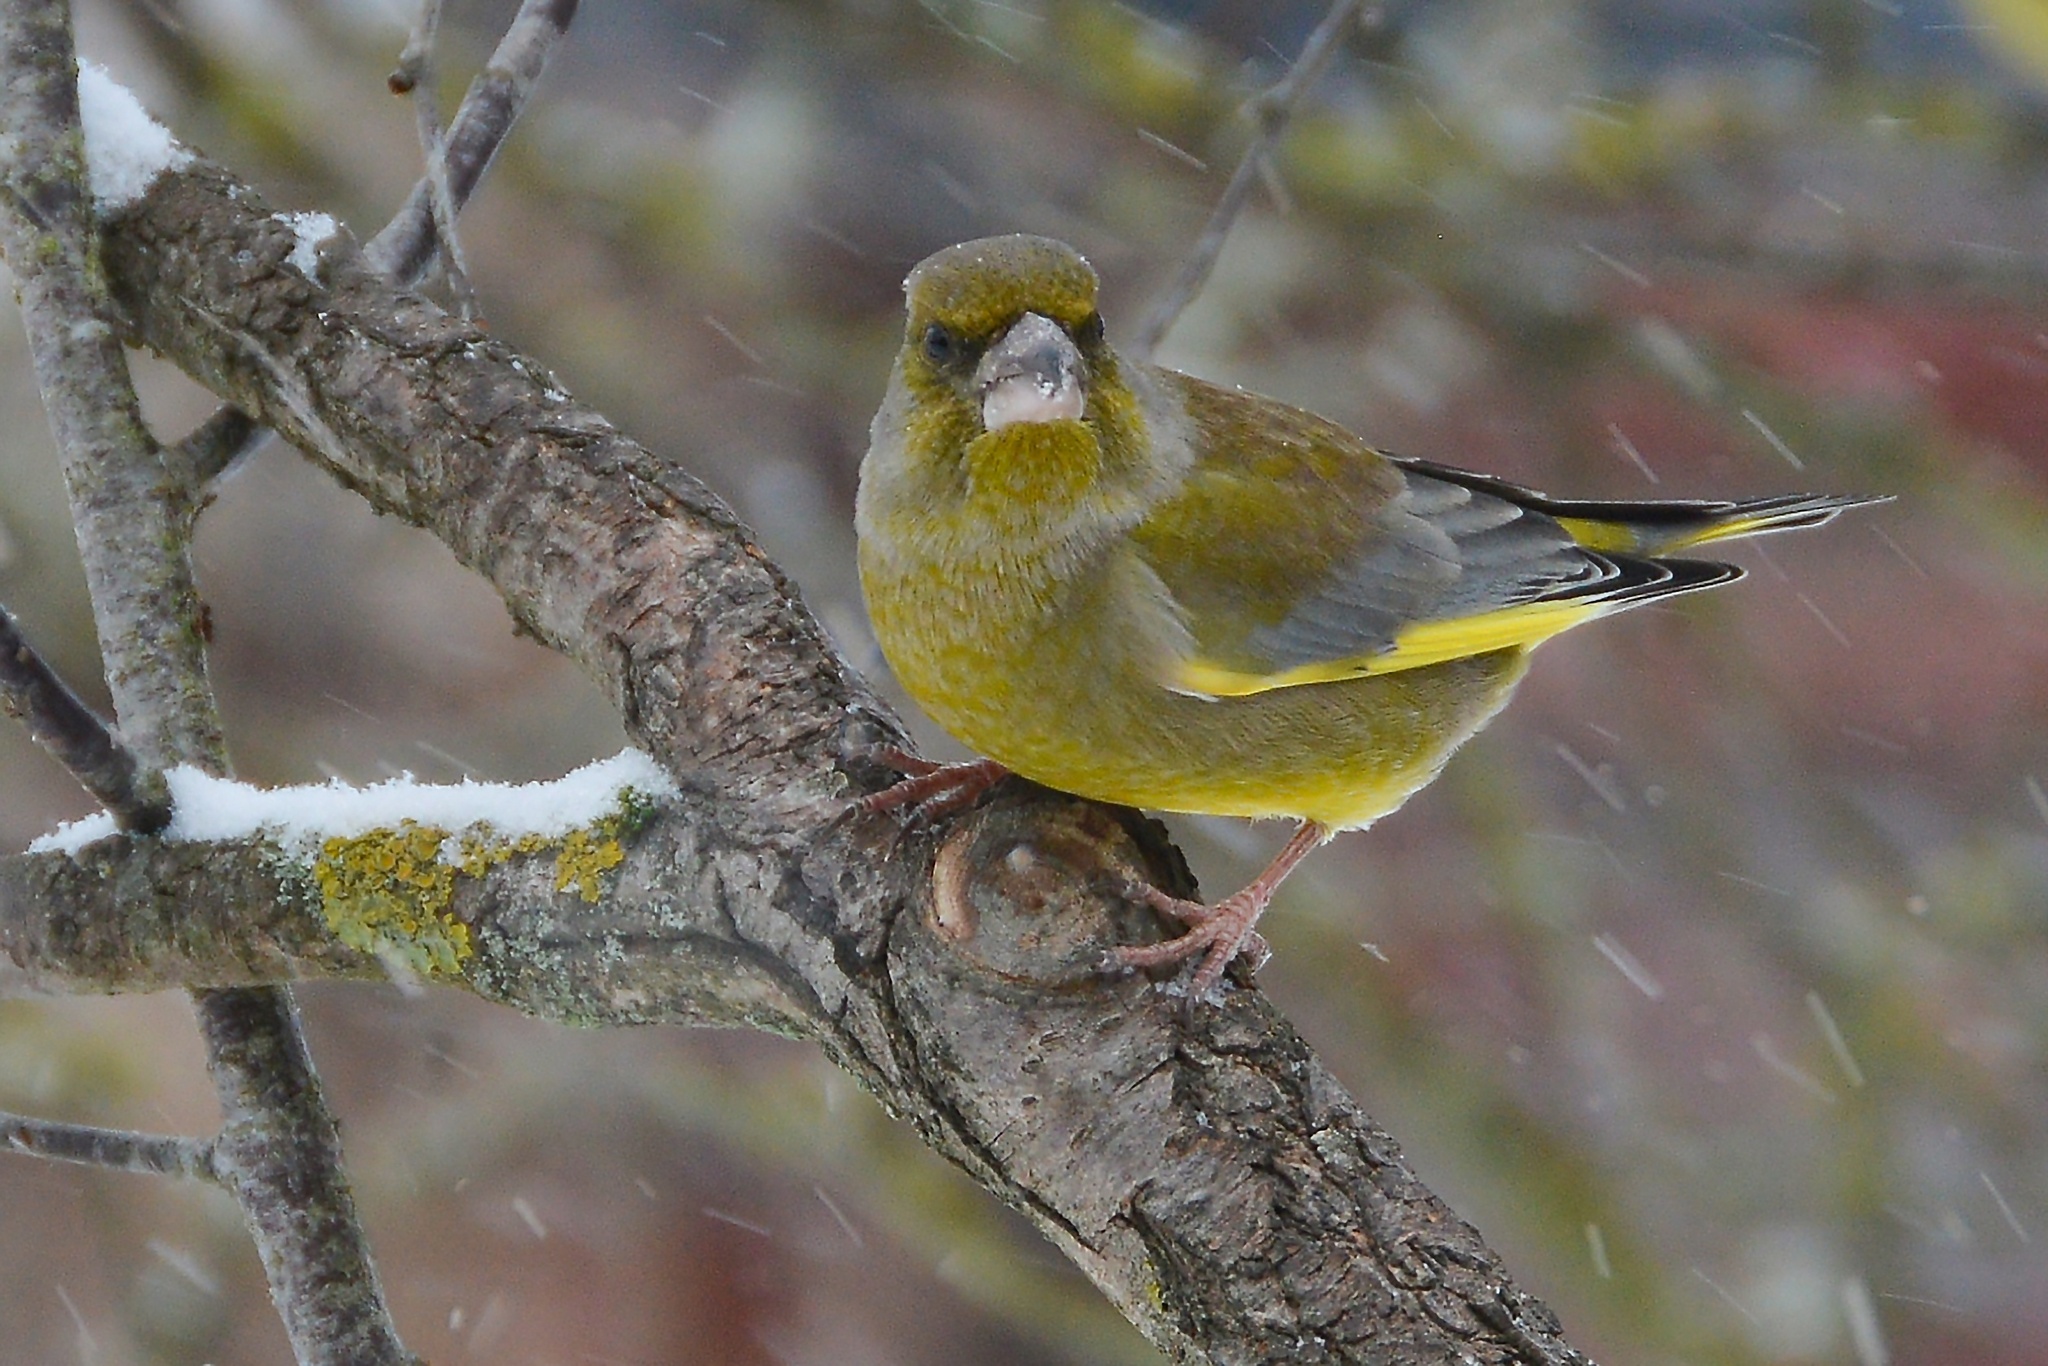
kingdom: Plantae
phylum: Tracheophyta
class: Liliopsida
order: Poales
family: Poaceae
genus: Chloris
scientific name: Chloris chloris
